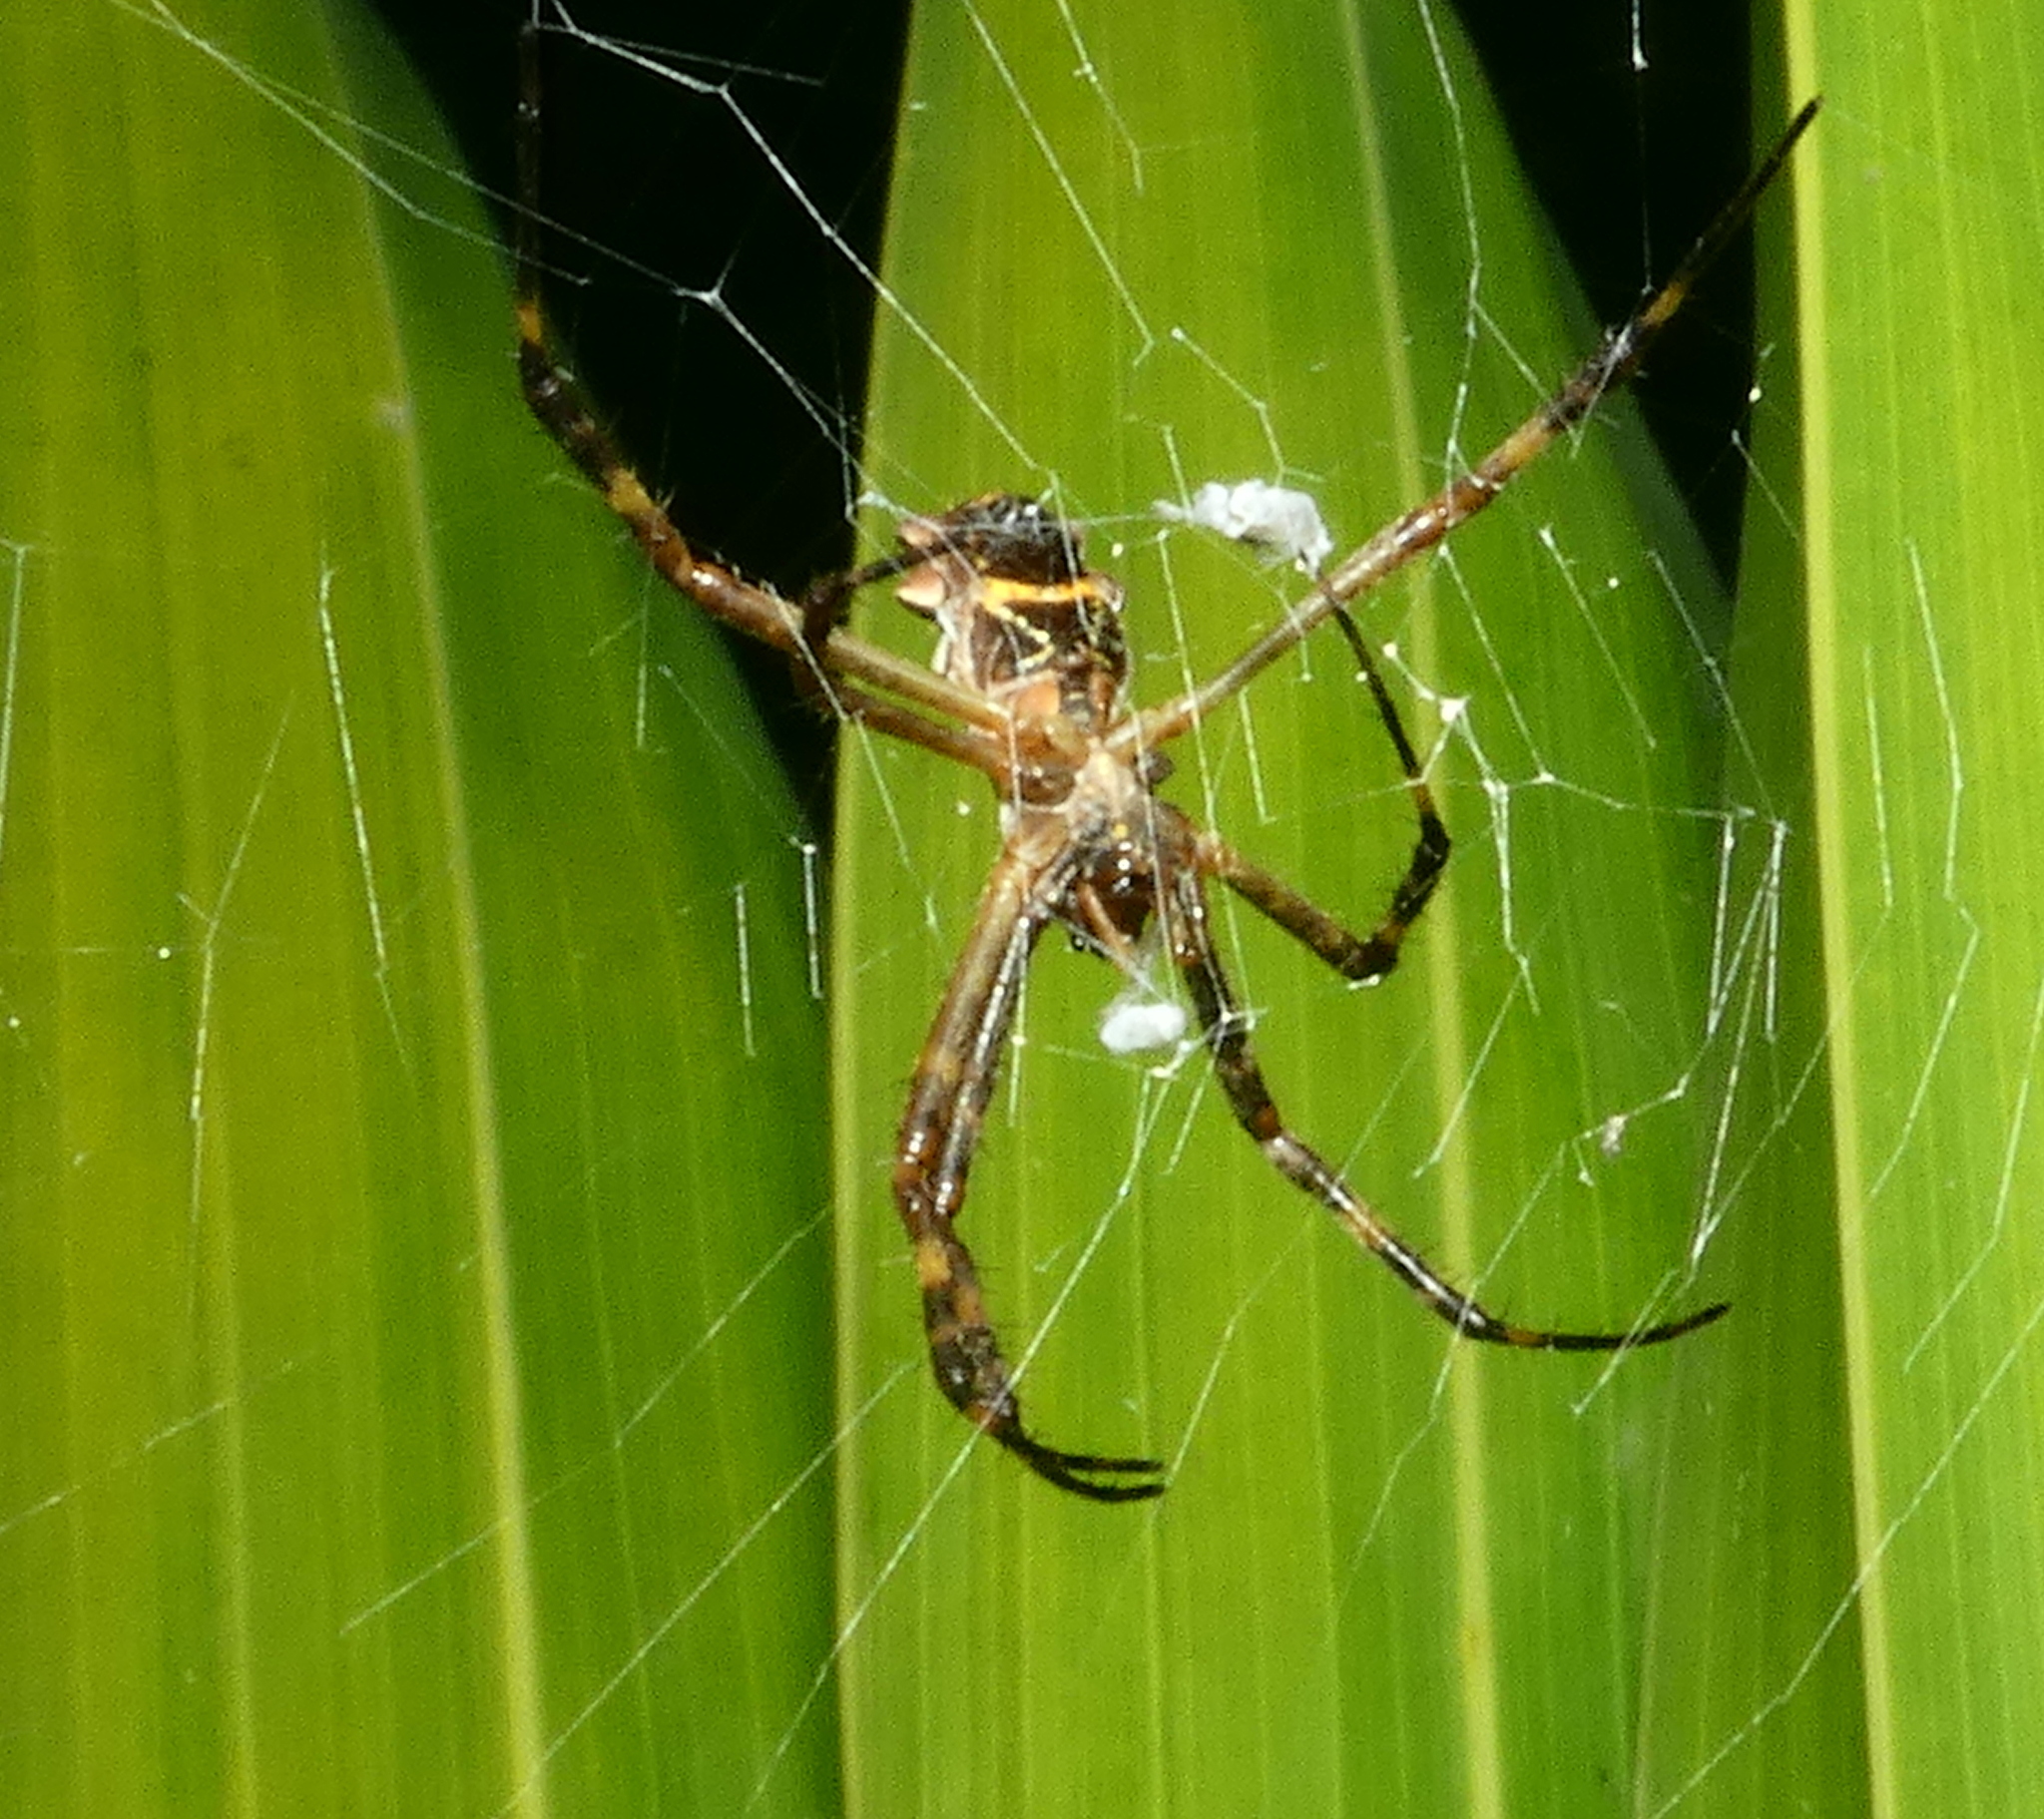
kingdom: Animalia
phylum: Arthropoda
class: Arachnida
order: Araneae
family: Araneidae
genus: Argiope
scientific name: Argiope argentata
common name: Orb weavers
